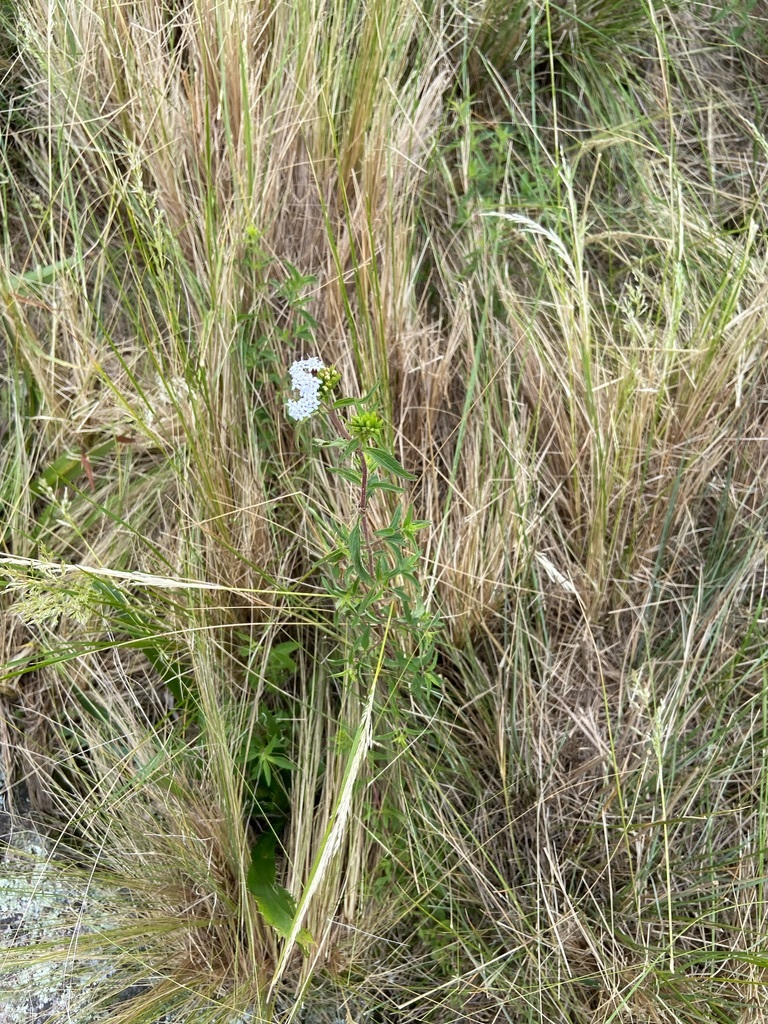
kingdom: Plantae
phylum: Tracheophyta
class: Magnoliopsida
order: Asterales
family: Asteraceae
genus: Stevia
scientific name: Stevia achalensis
